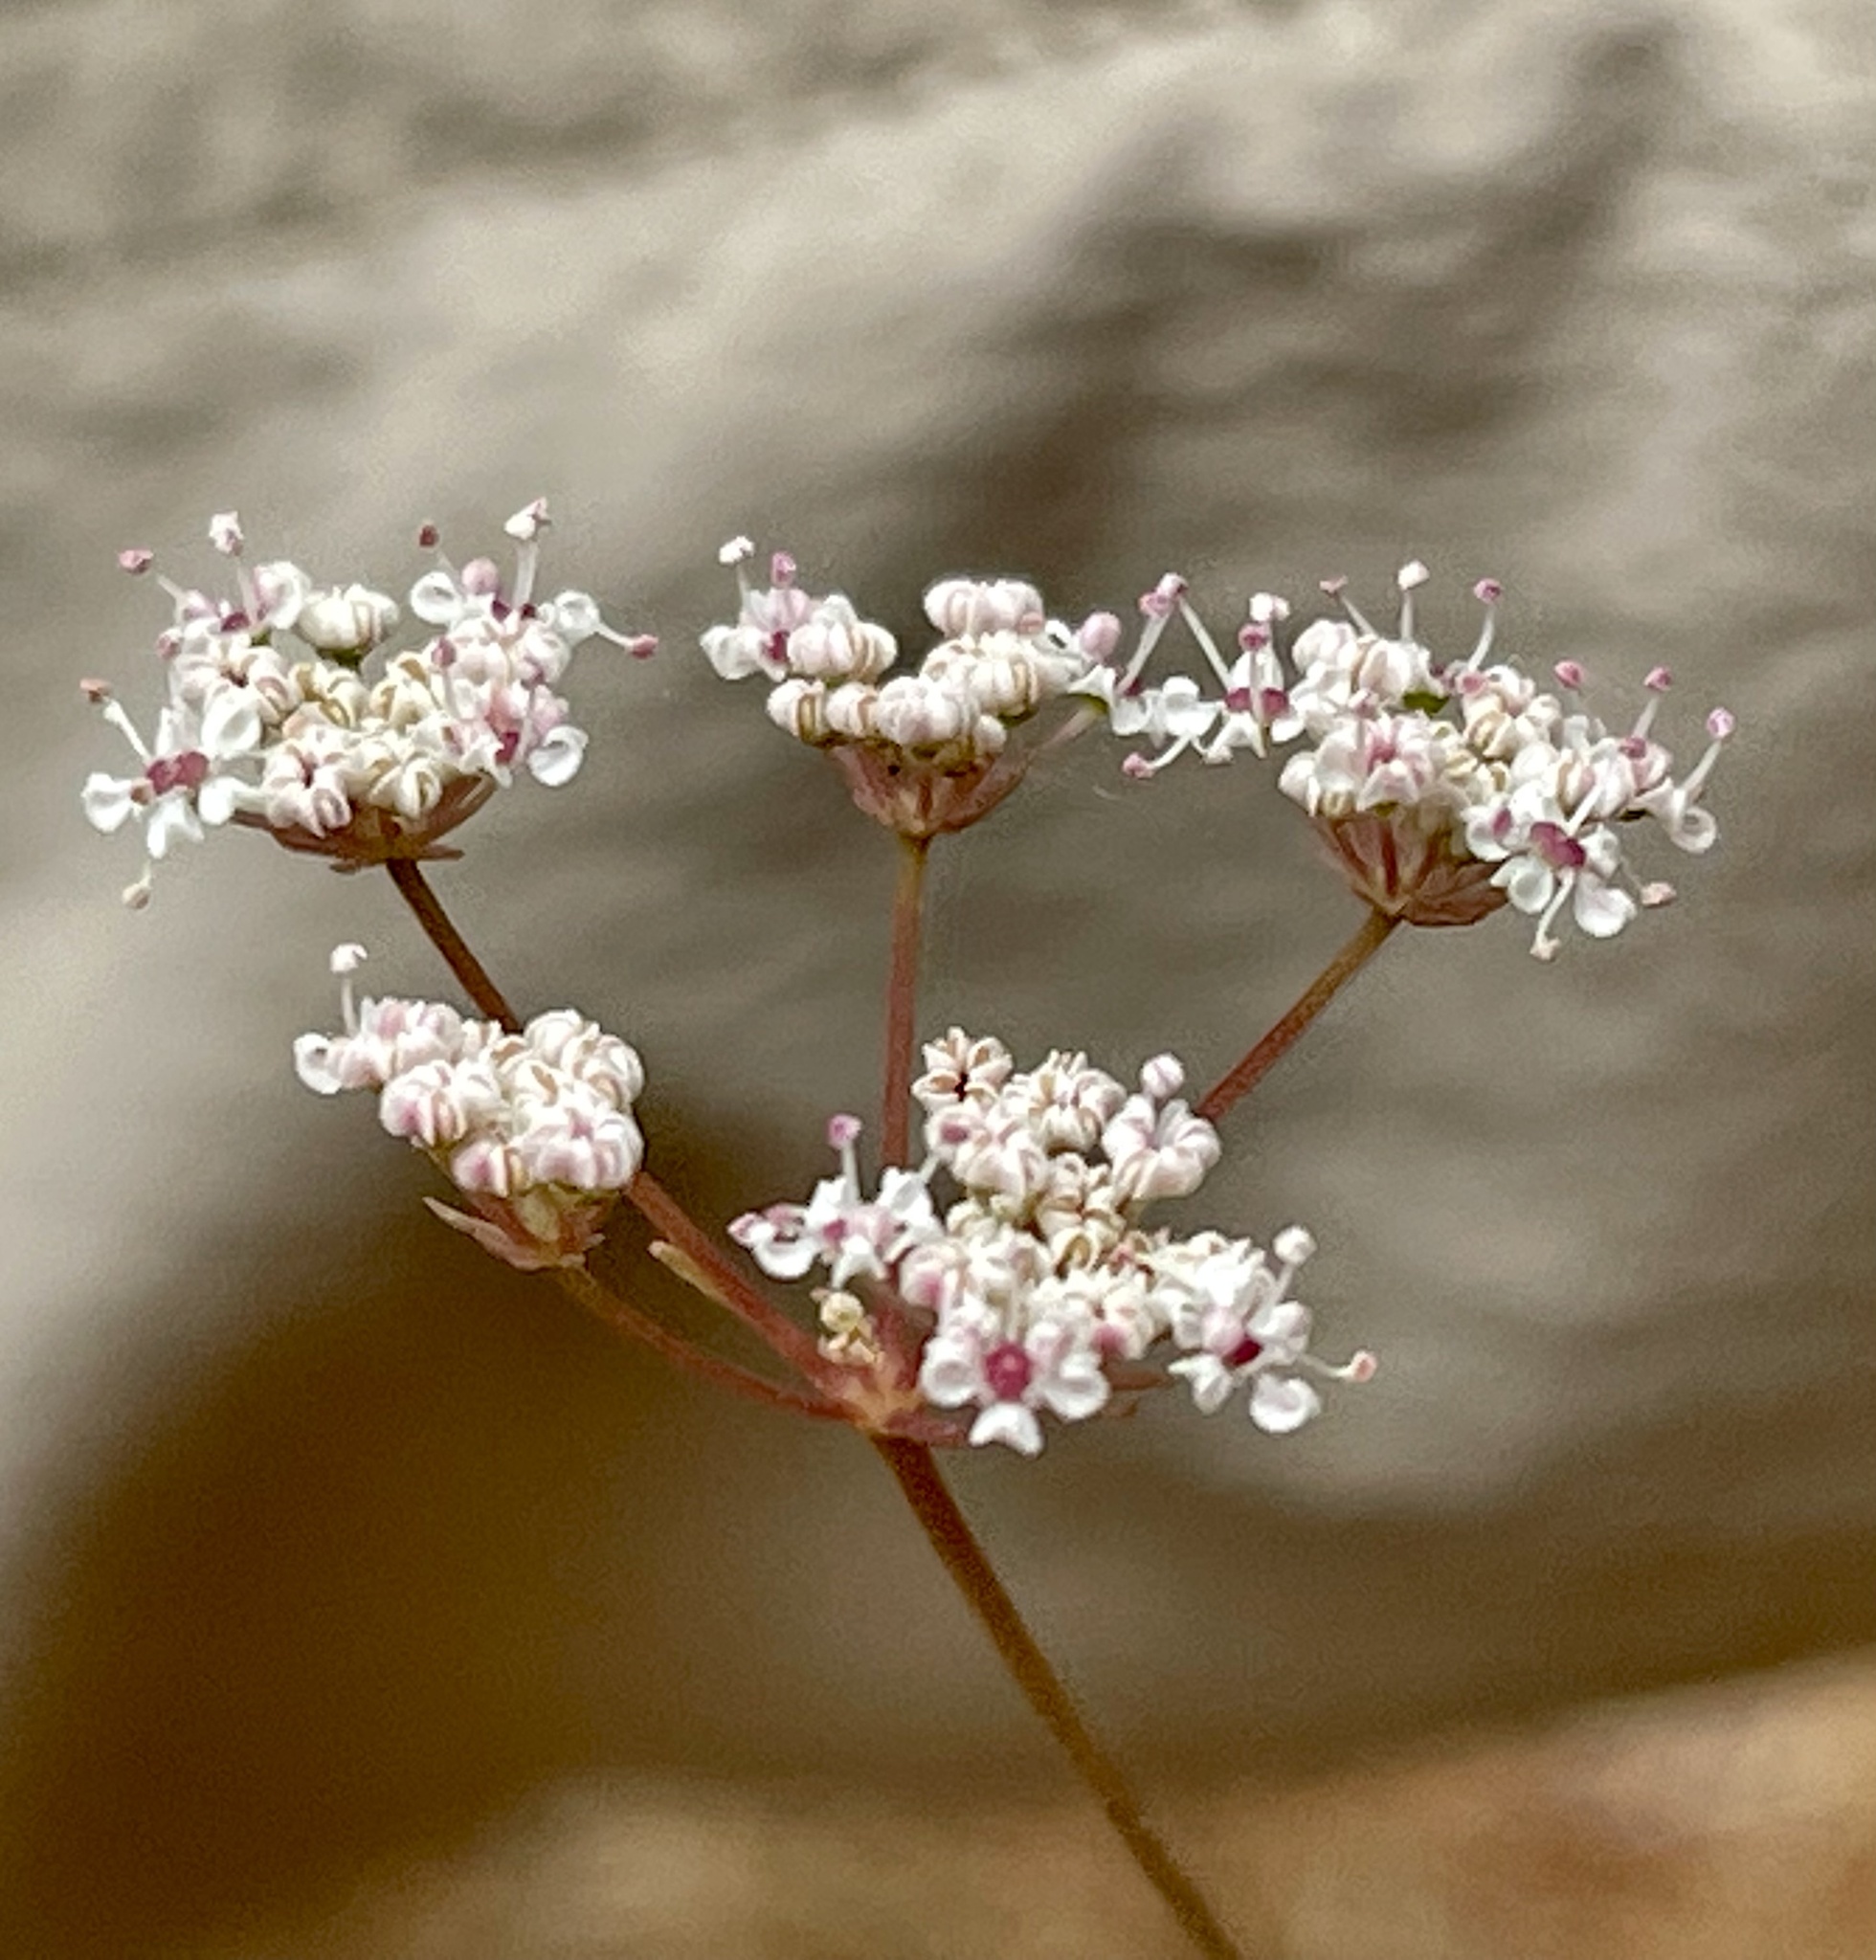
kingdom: Plantae
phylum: Tracheophyta
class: Magnoliopsida
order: Apiales
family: Apiaceae
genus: Perideridia
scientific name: Perideridia gairdneri
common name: False caraway
